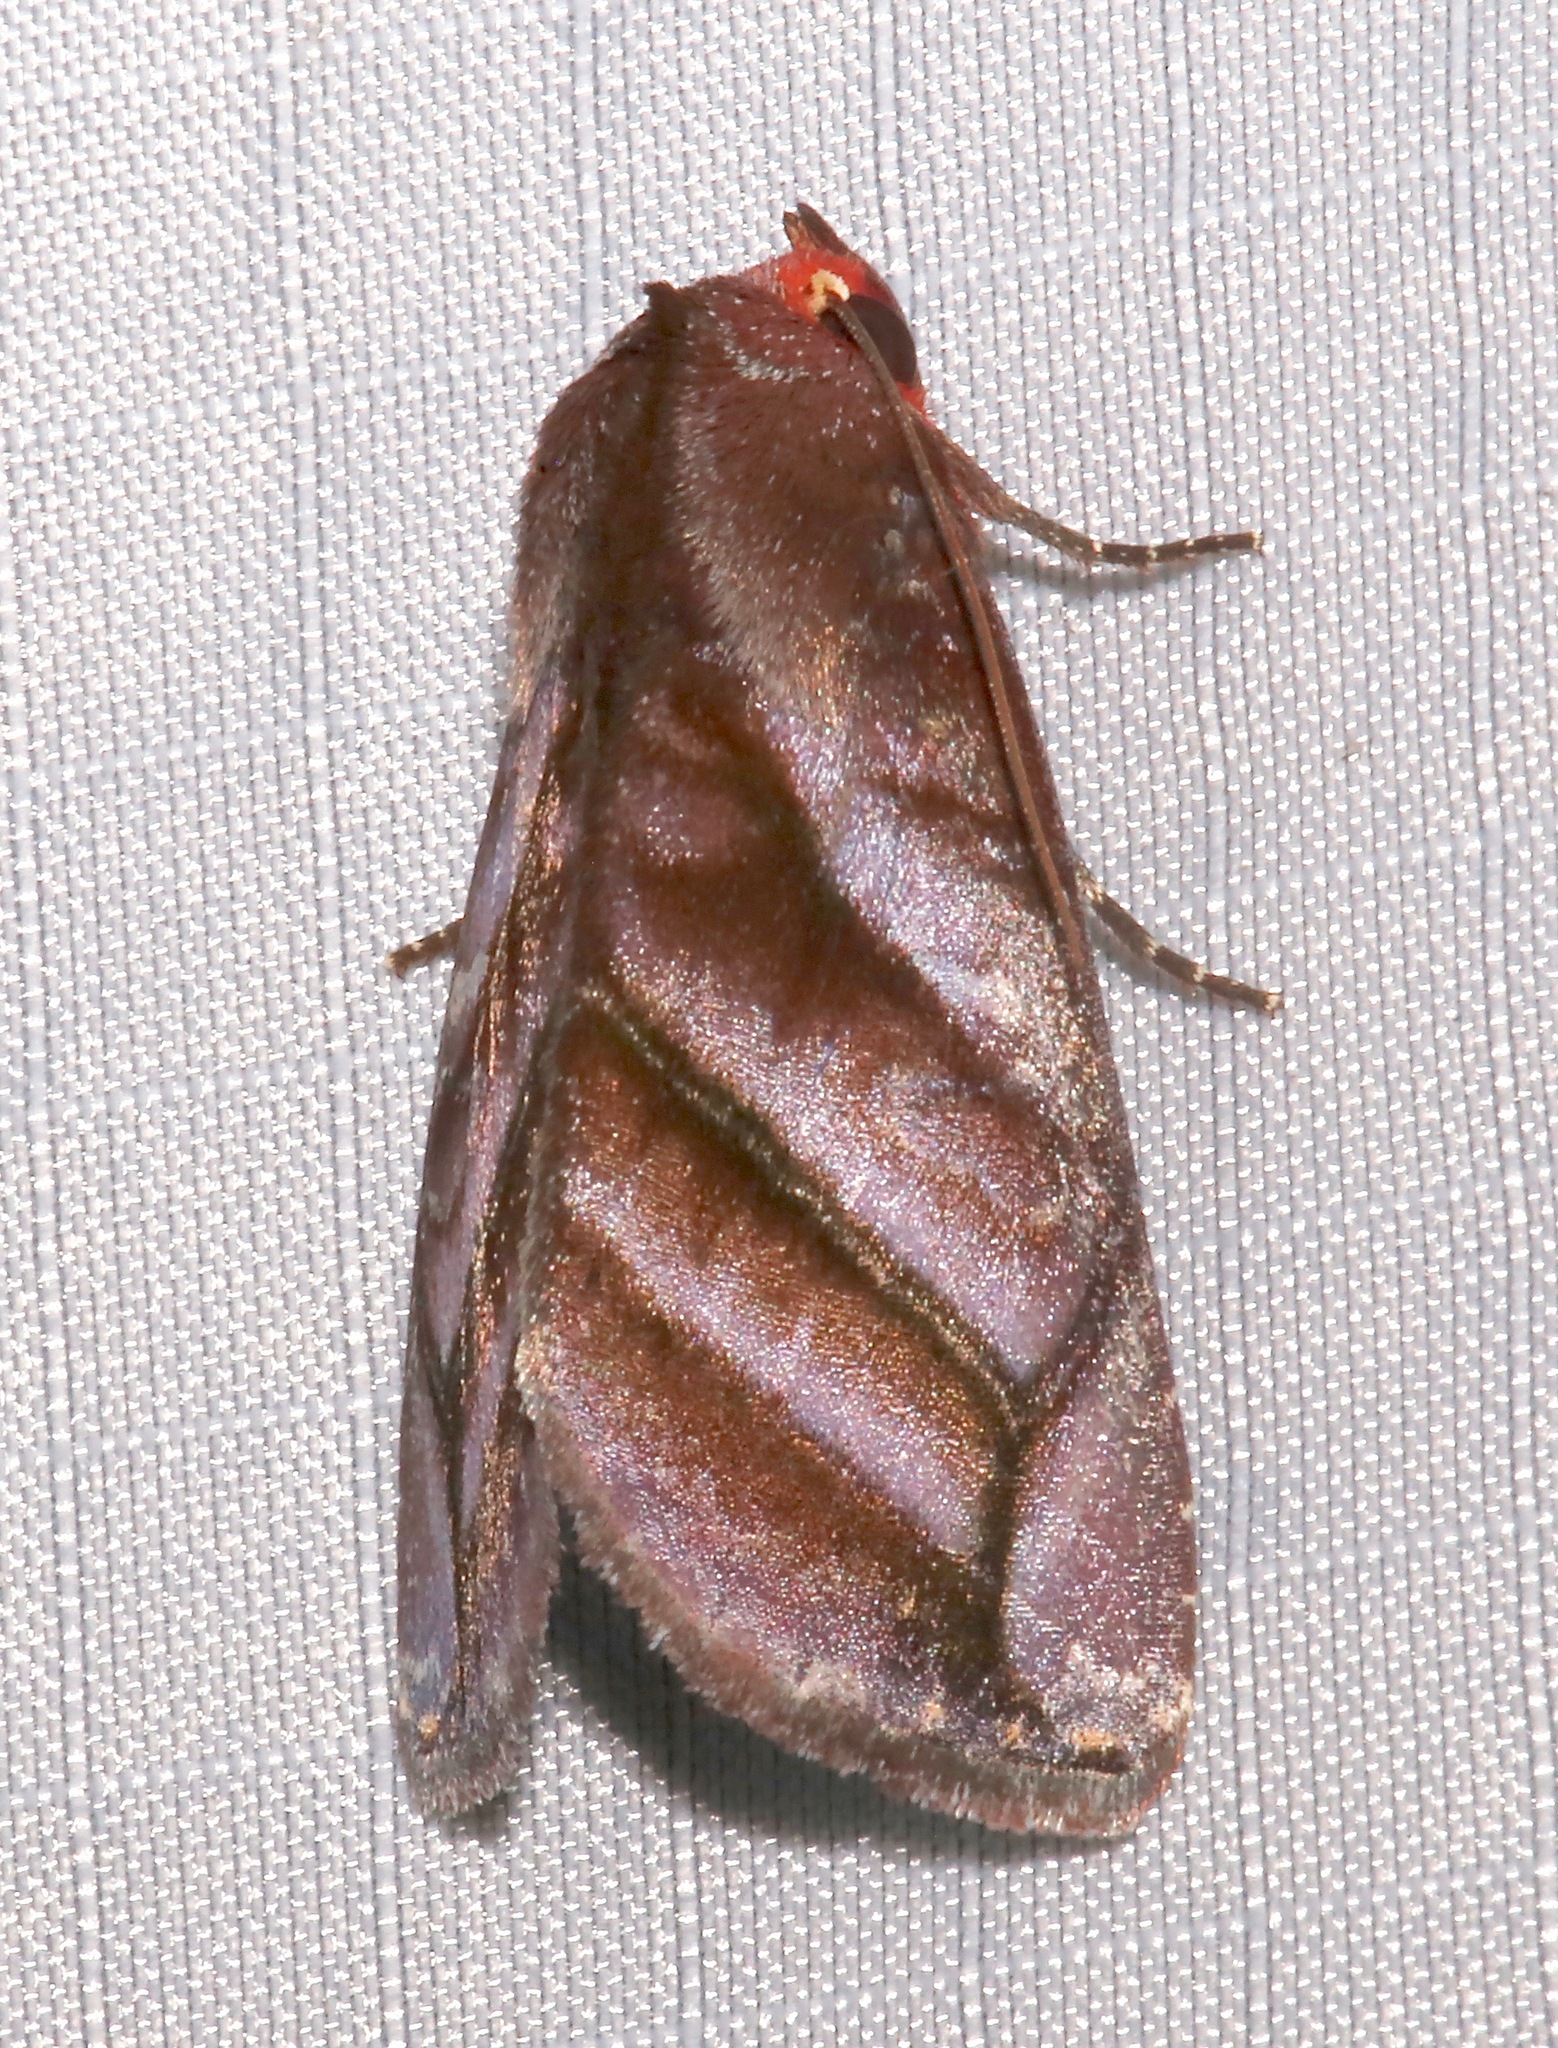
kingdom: Animalia
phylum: Arthropoda
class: Insecta
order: Lepidoptera
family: Erebidae
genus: Hemicephalis
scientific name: Hemicephalis paulina
